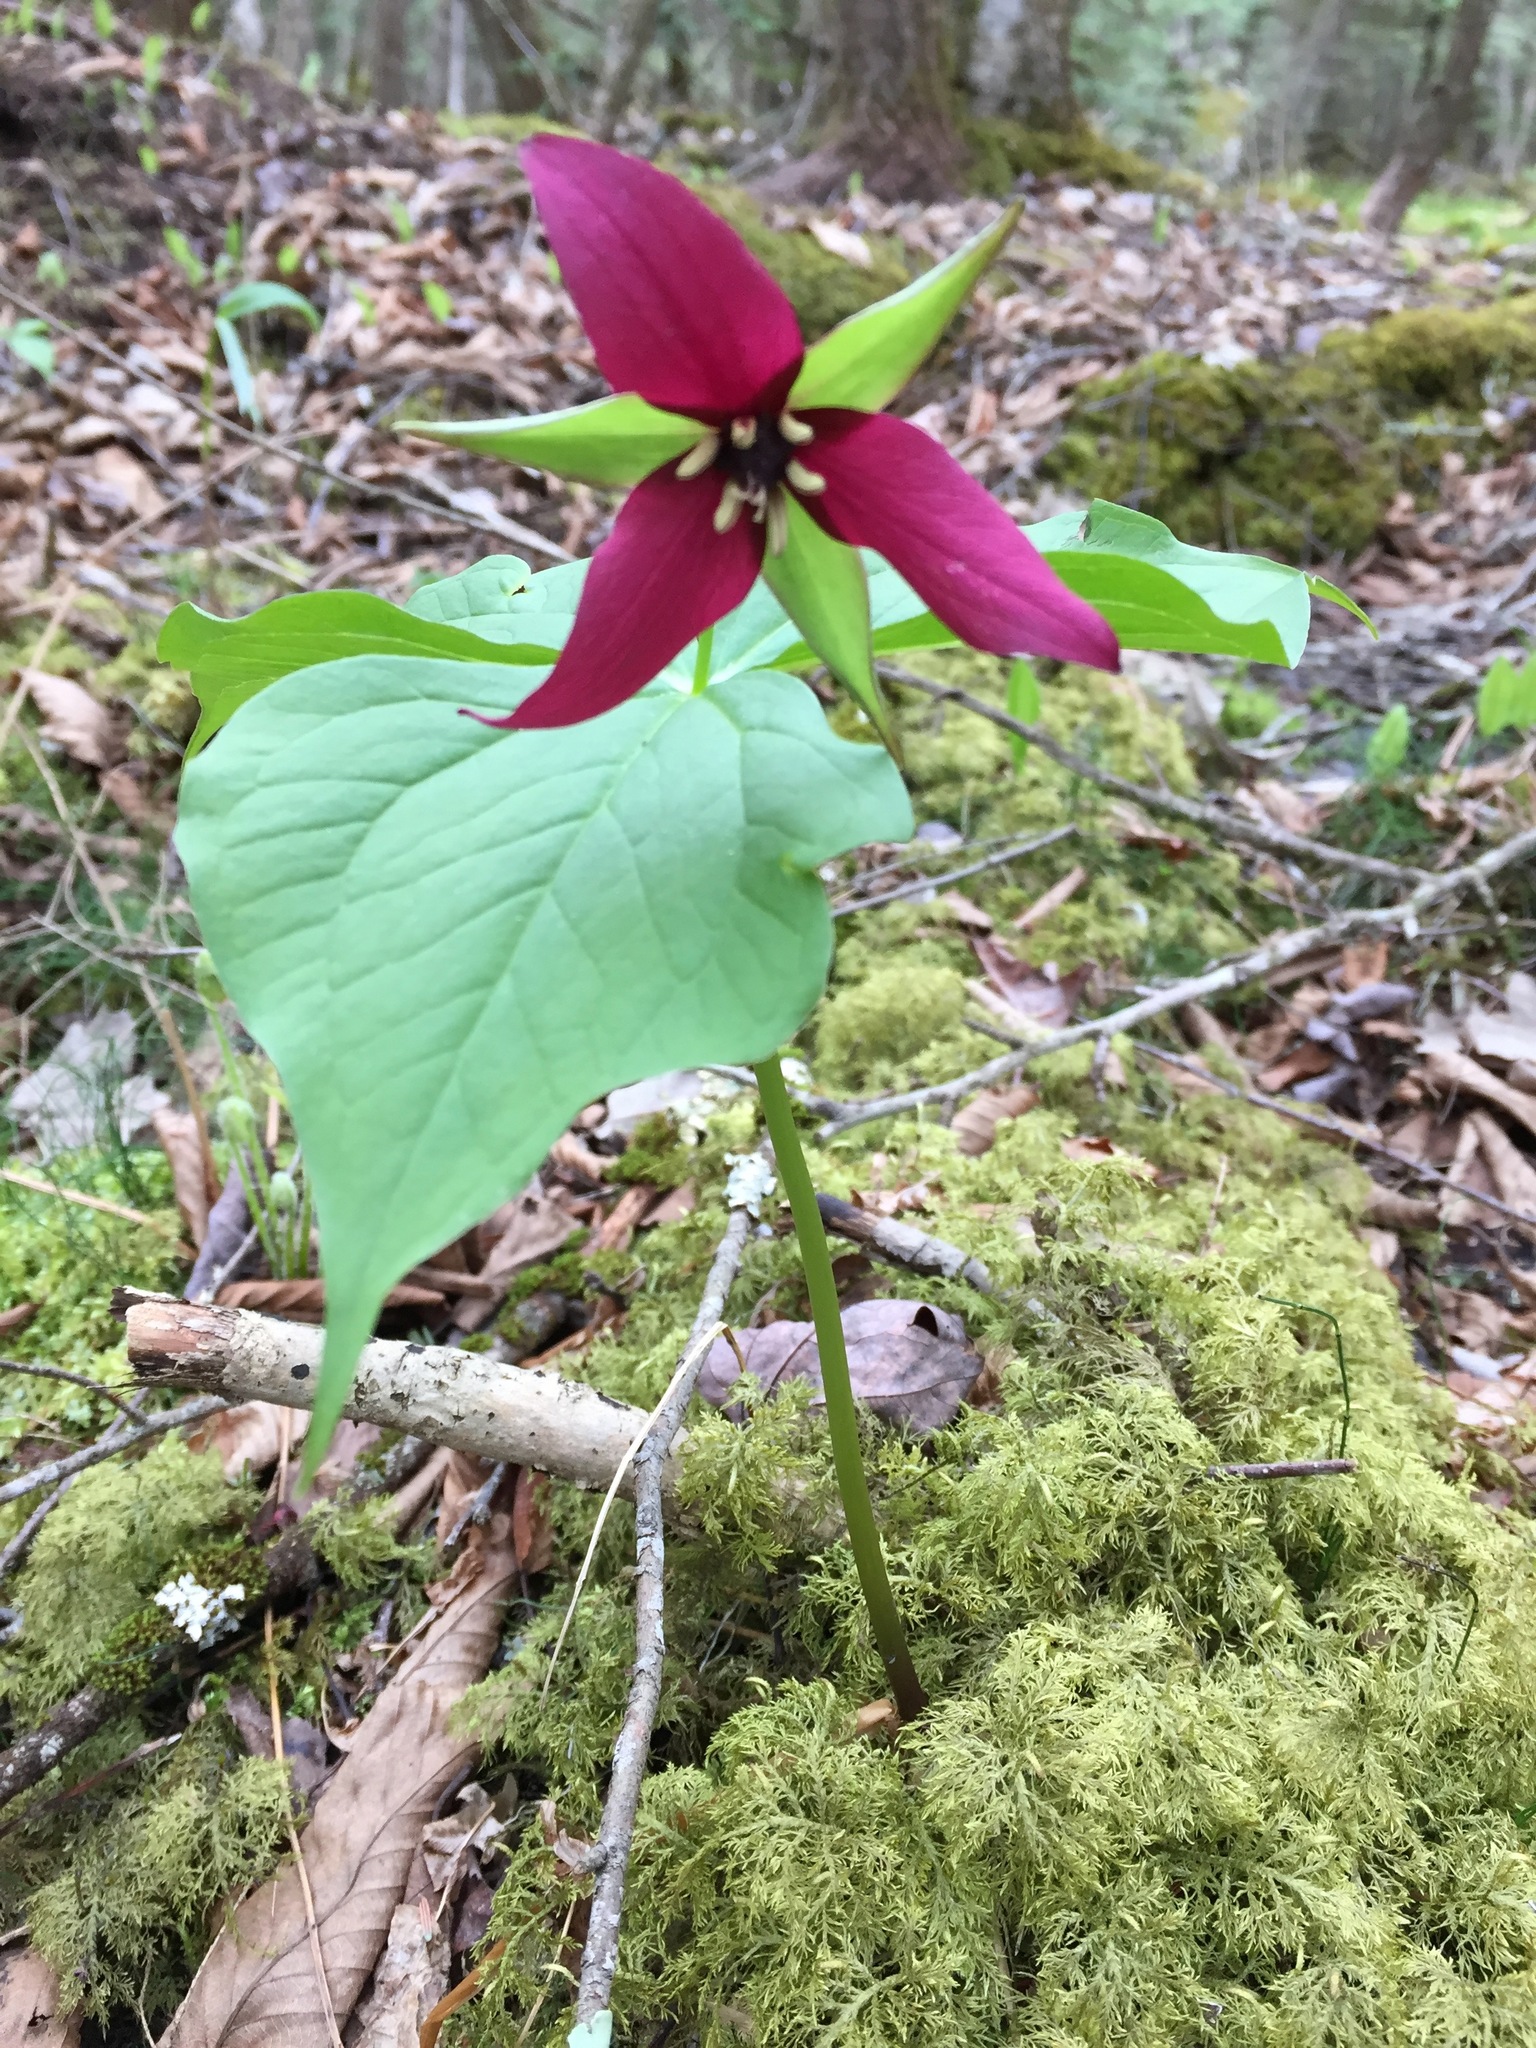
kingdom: Plantae
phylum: Tracheophyta
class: Liliopsida
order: Liliales
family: Melanthiaceae
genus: Trillium
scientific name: Trillium erectum
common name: Purple trillium
